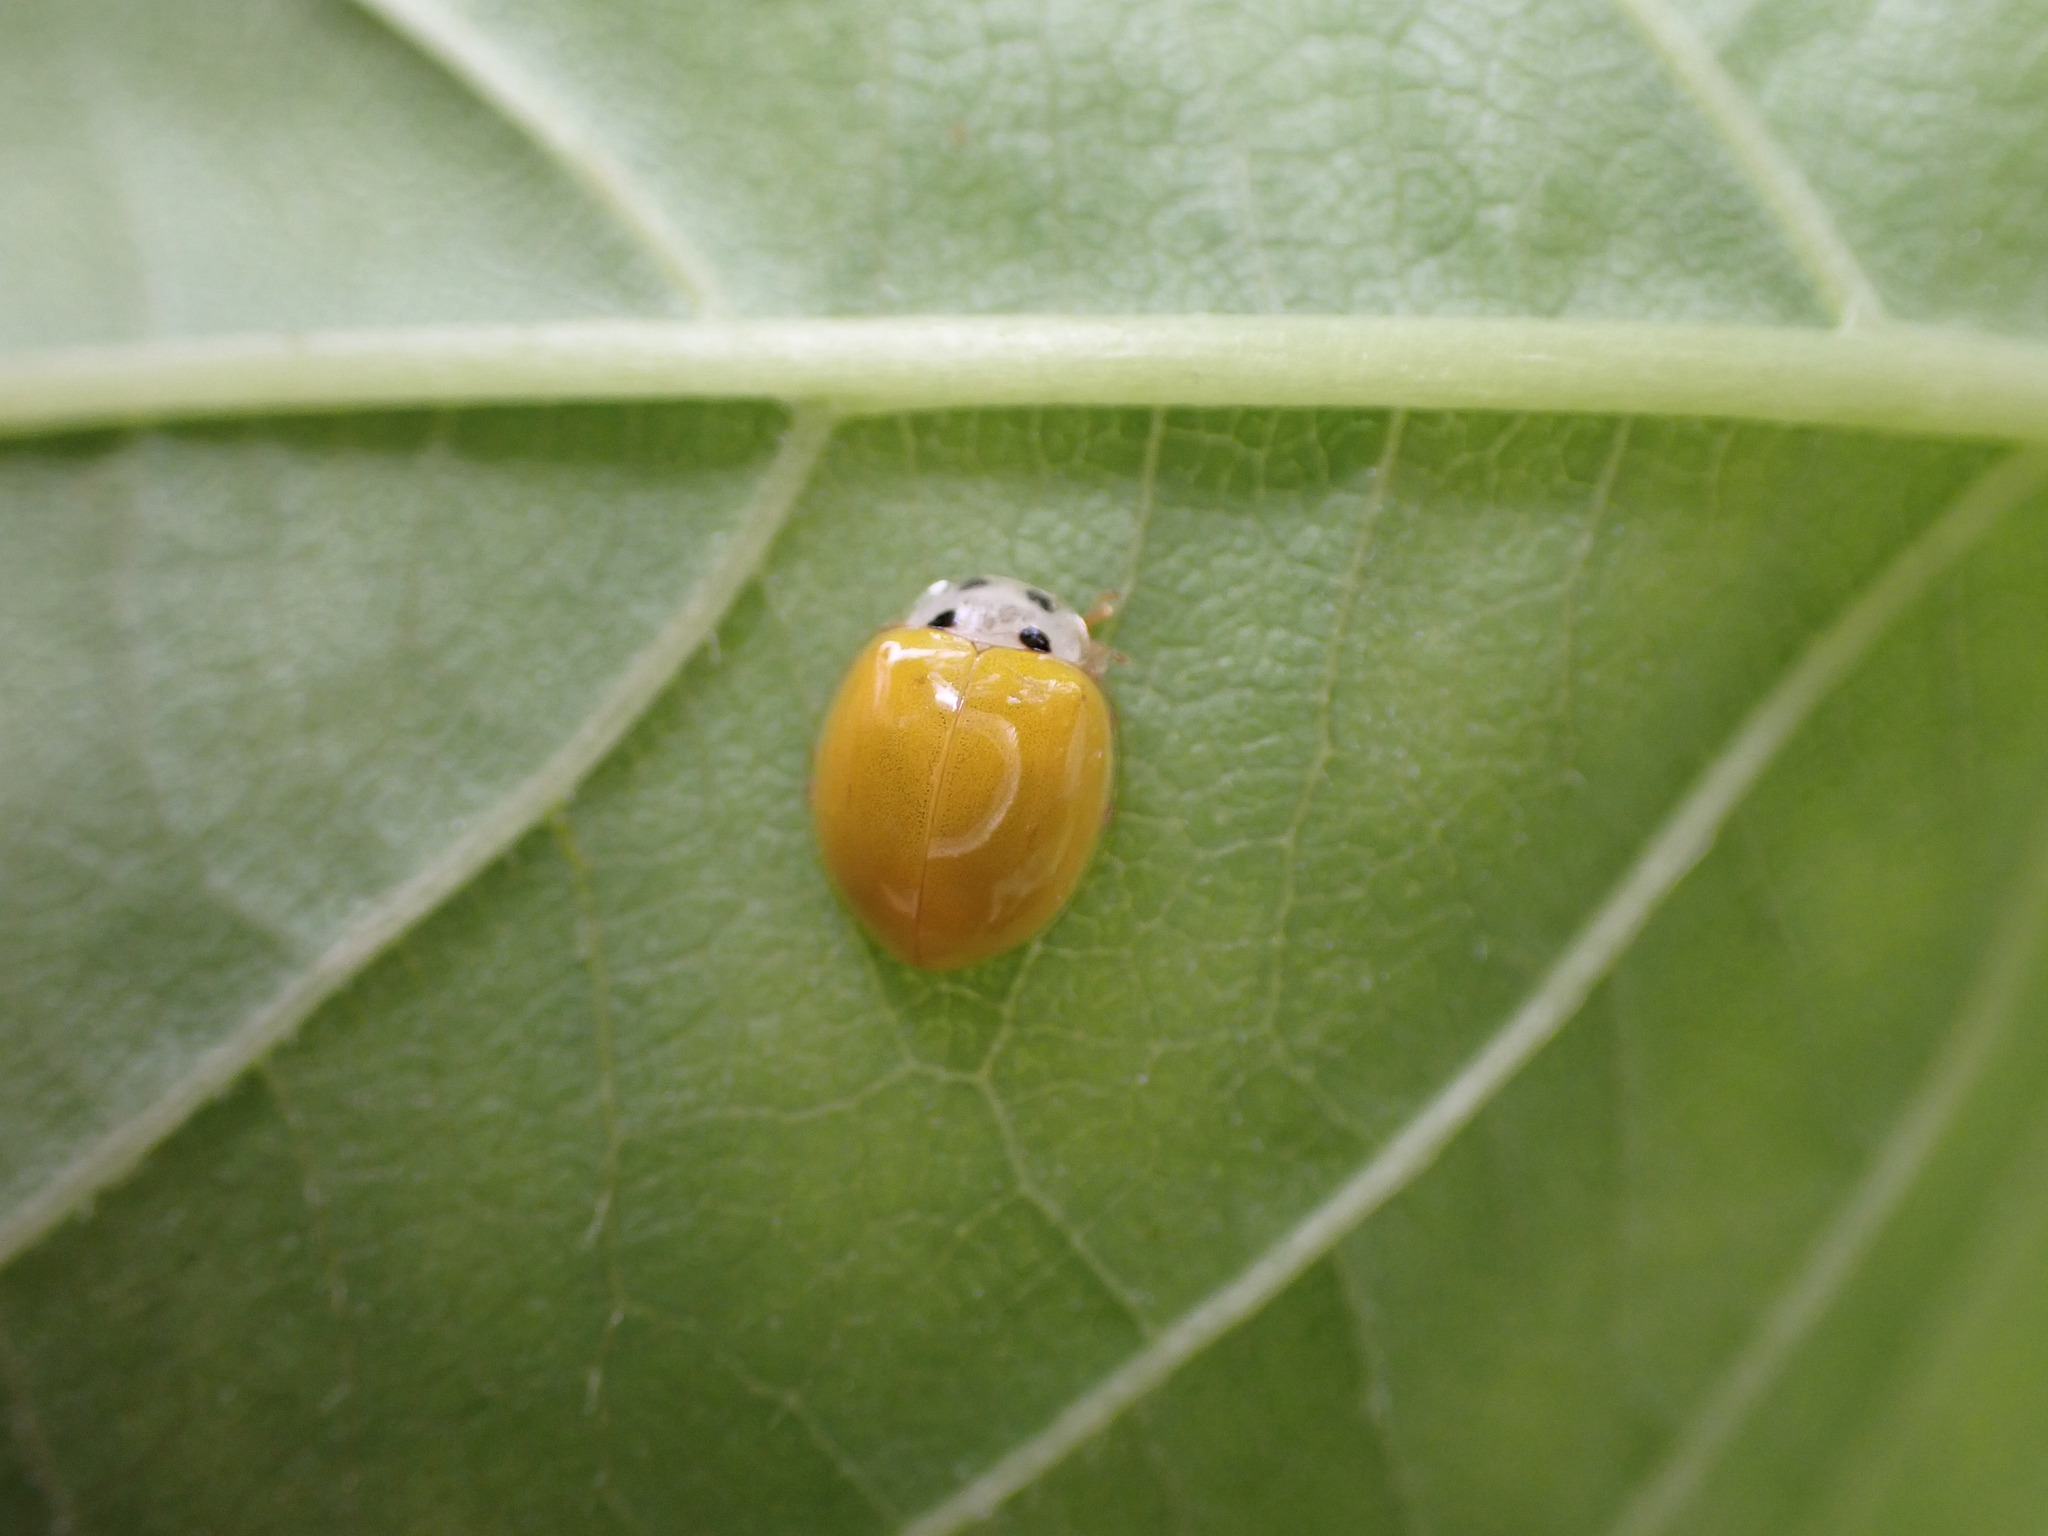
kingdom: Animalia
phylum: Arthropoda
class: Insecta
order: Coleoptera
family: Coccinellidae
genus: Illeis
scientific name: Illeis koebelei
